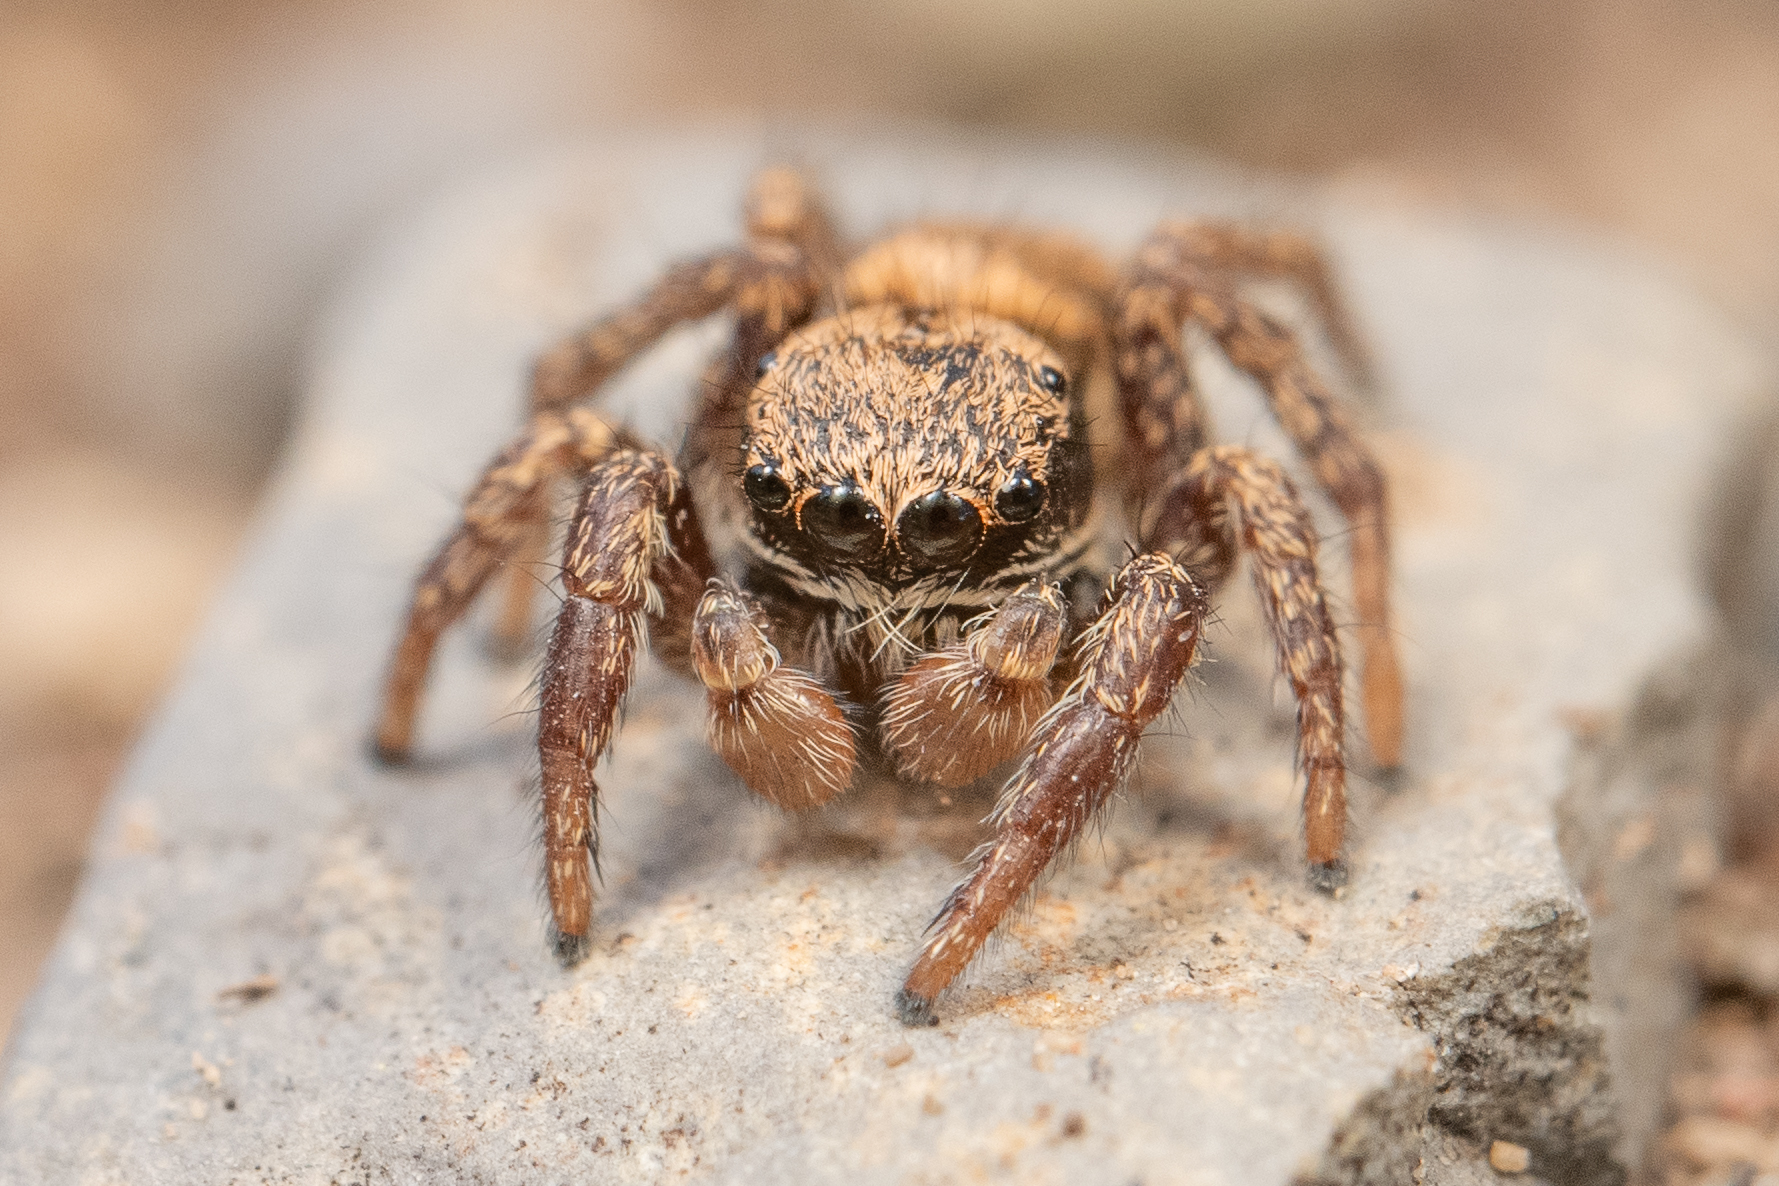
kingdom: Animalia
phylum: Arthropoda
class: Arachnida
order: Araneae
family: Salticidae
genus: Habronattus
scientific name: Habronattus oregonensis
